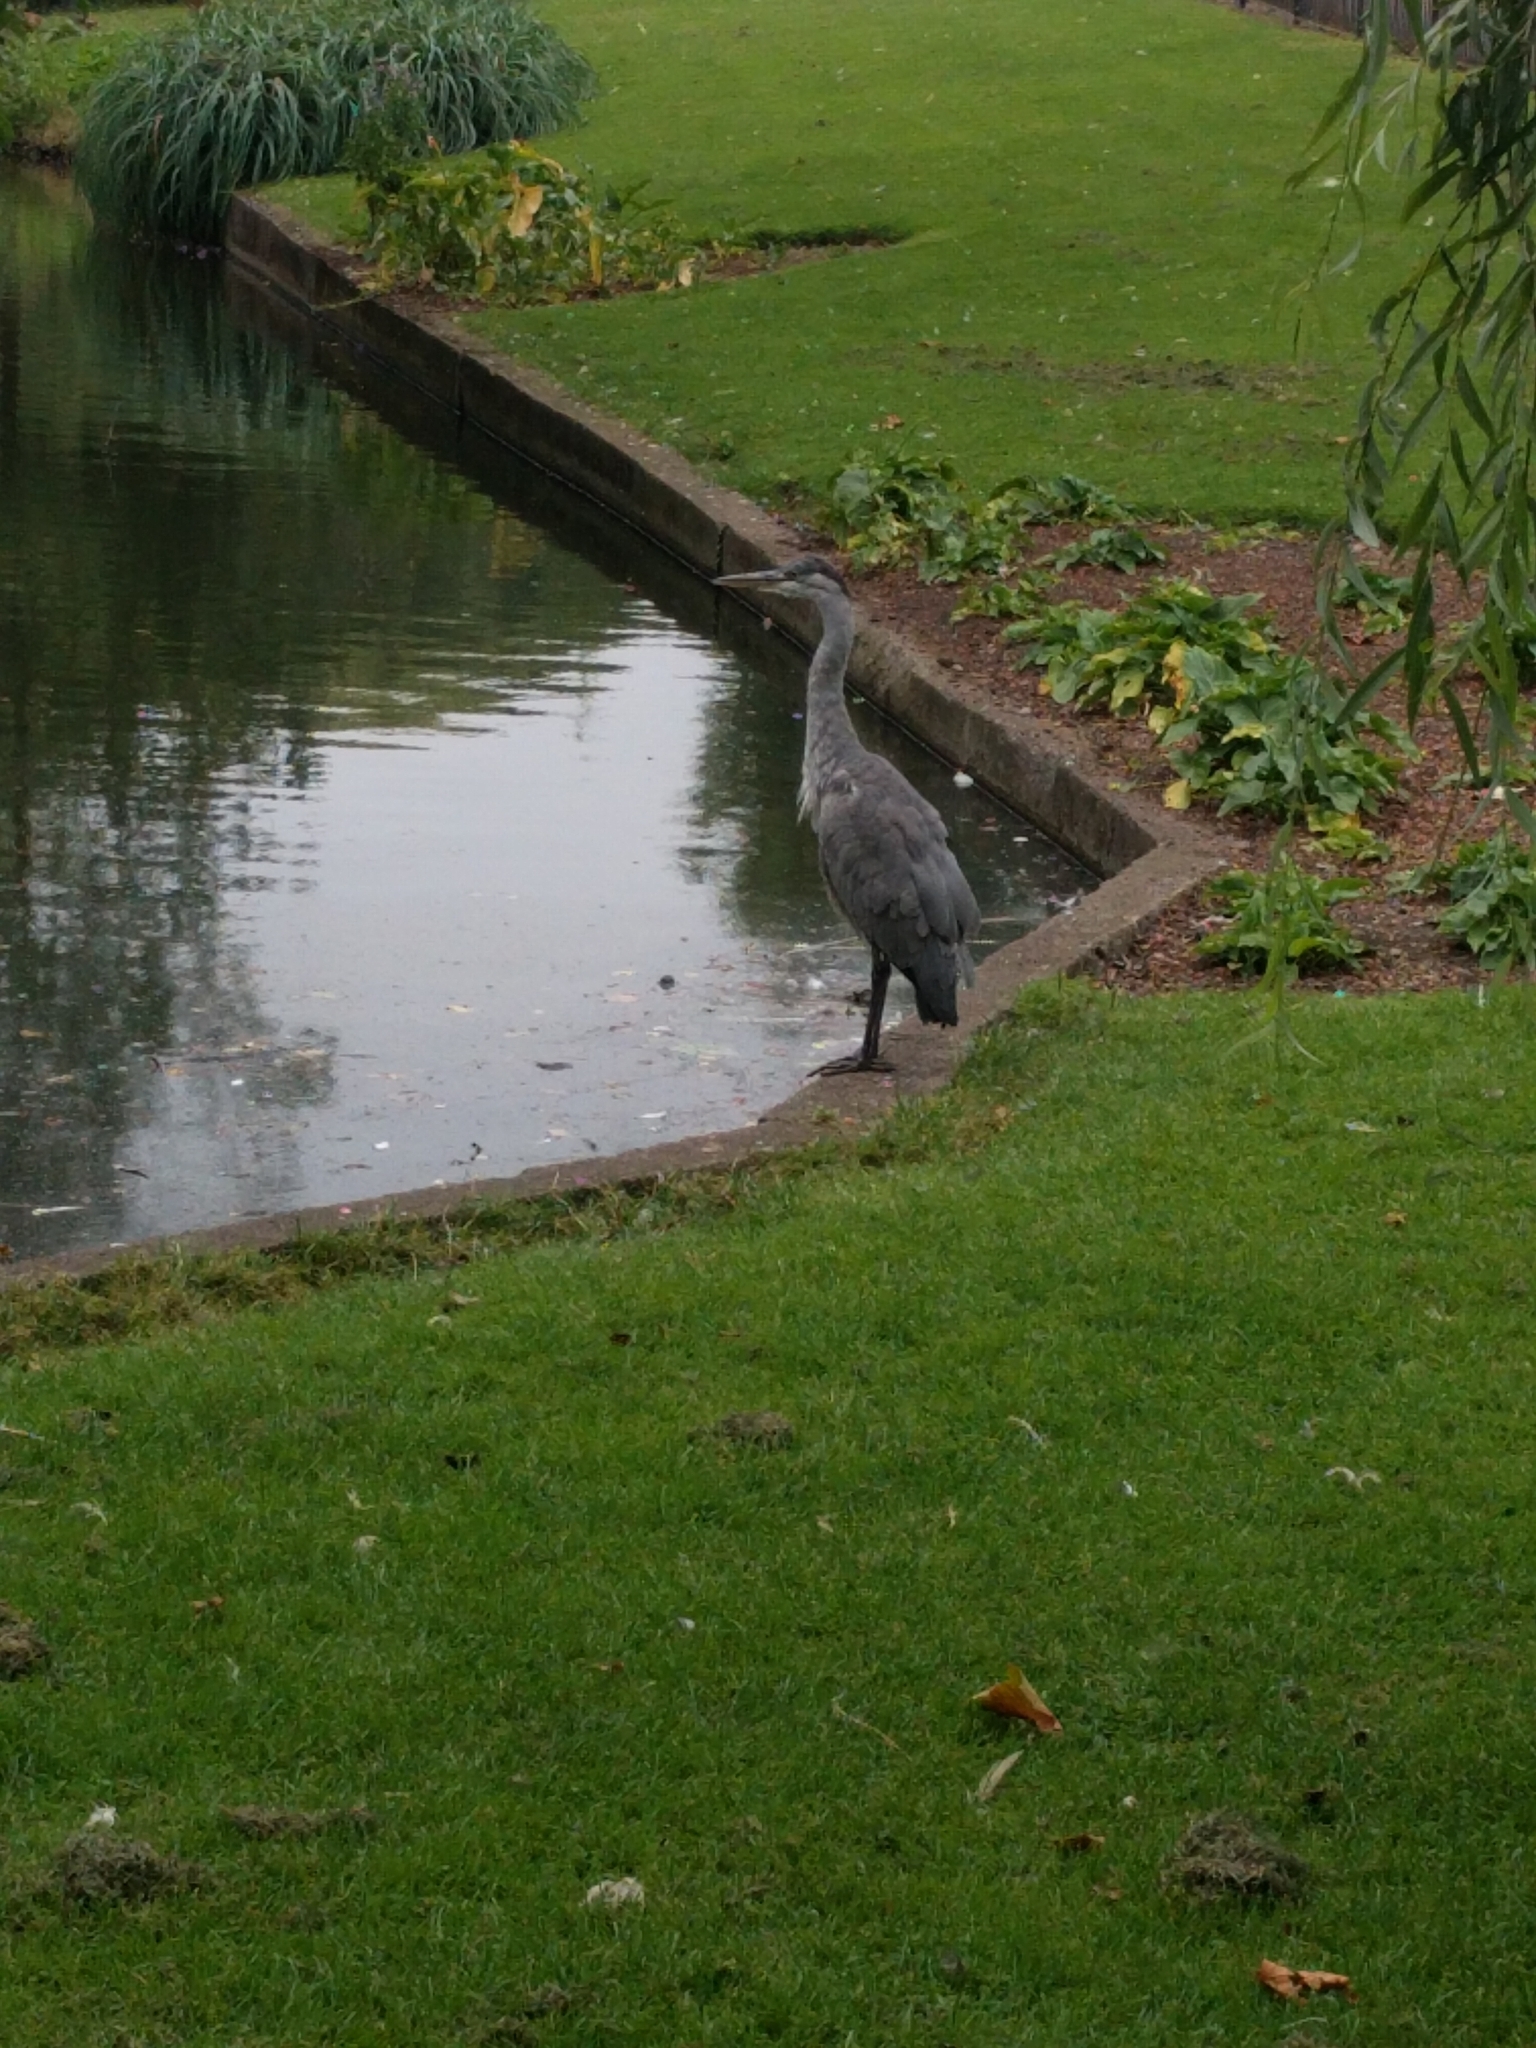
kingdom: Animalia
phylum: Chordata
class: Aves
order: Pelecaniformes
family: Ardeidae
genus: Ardea
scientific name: Ardea cinerea
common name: Grey heron
